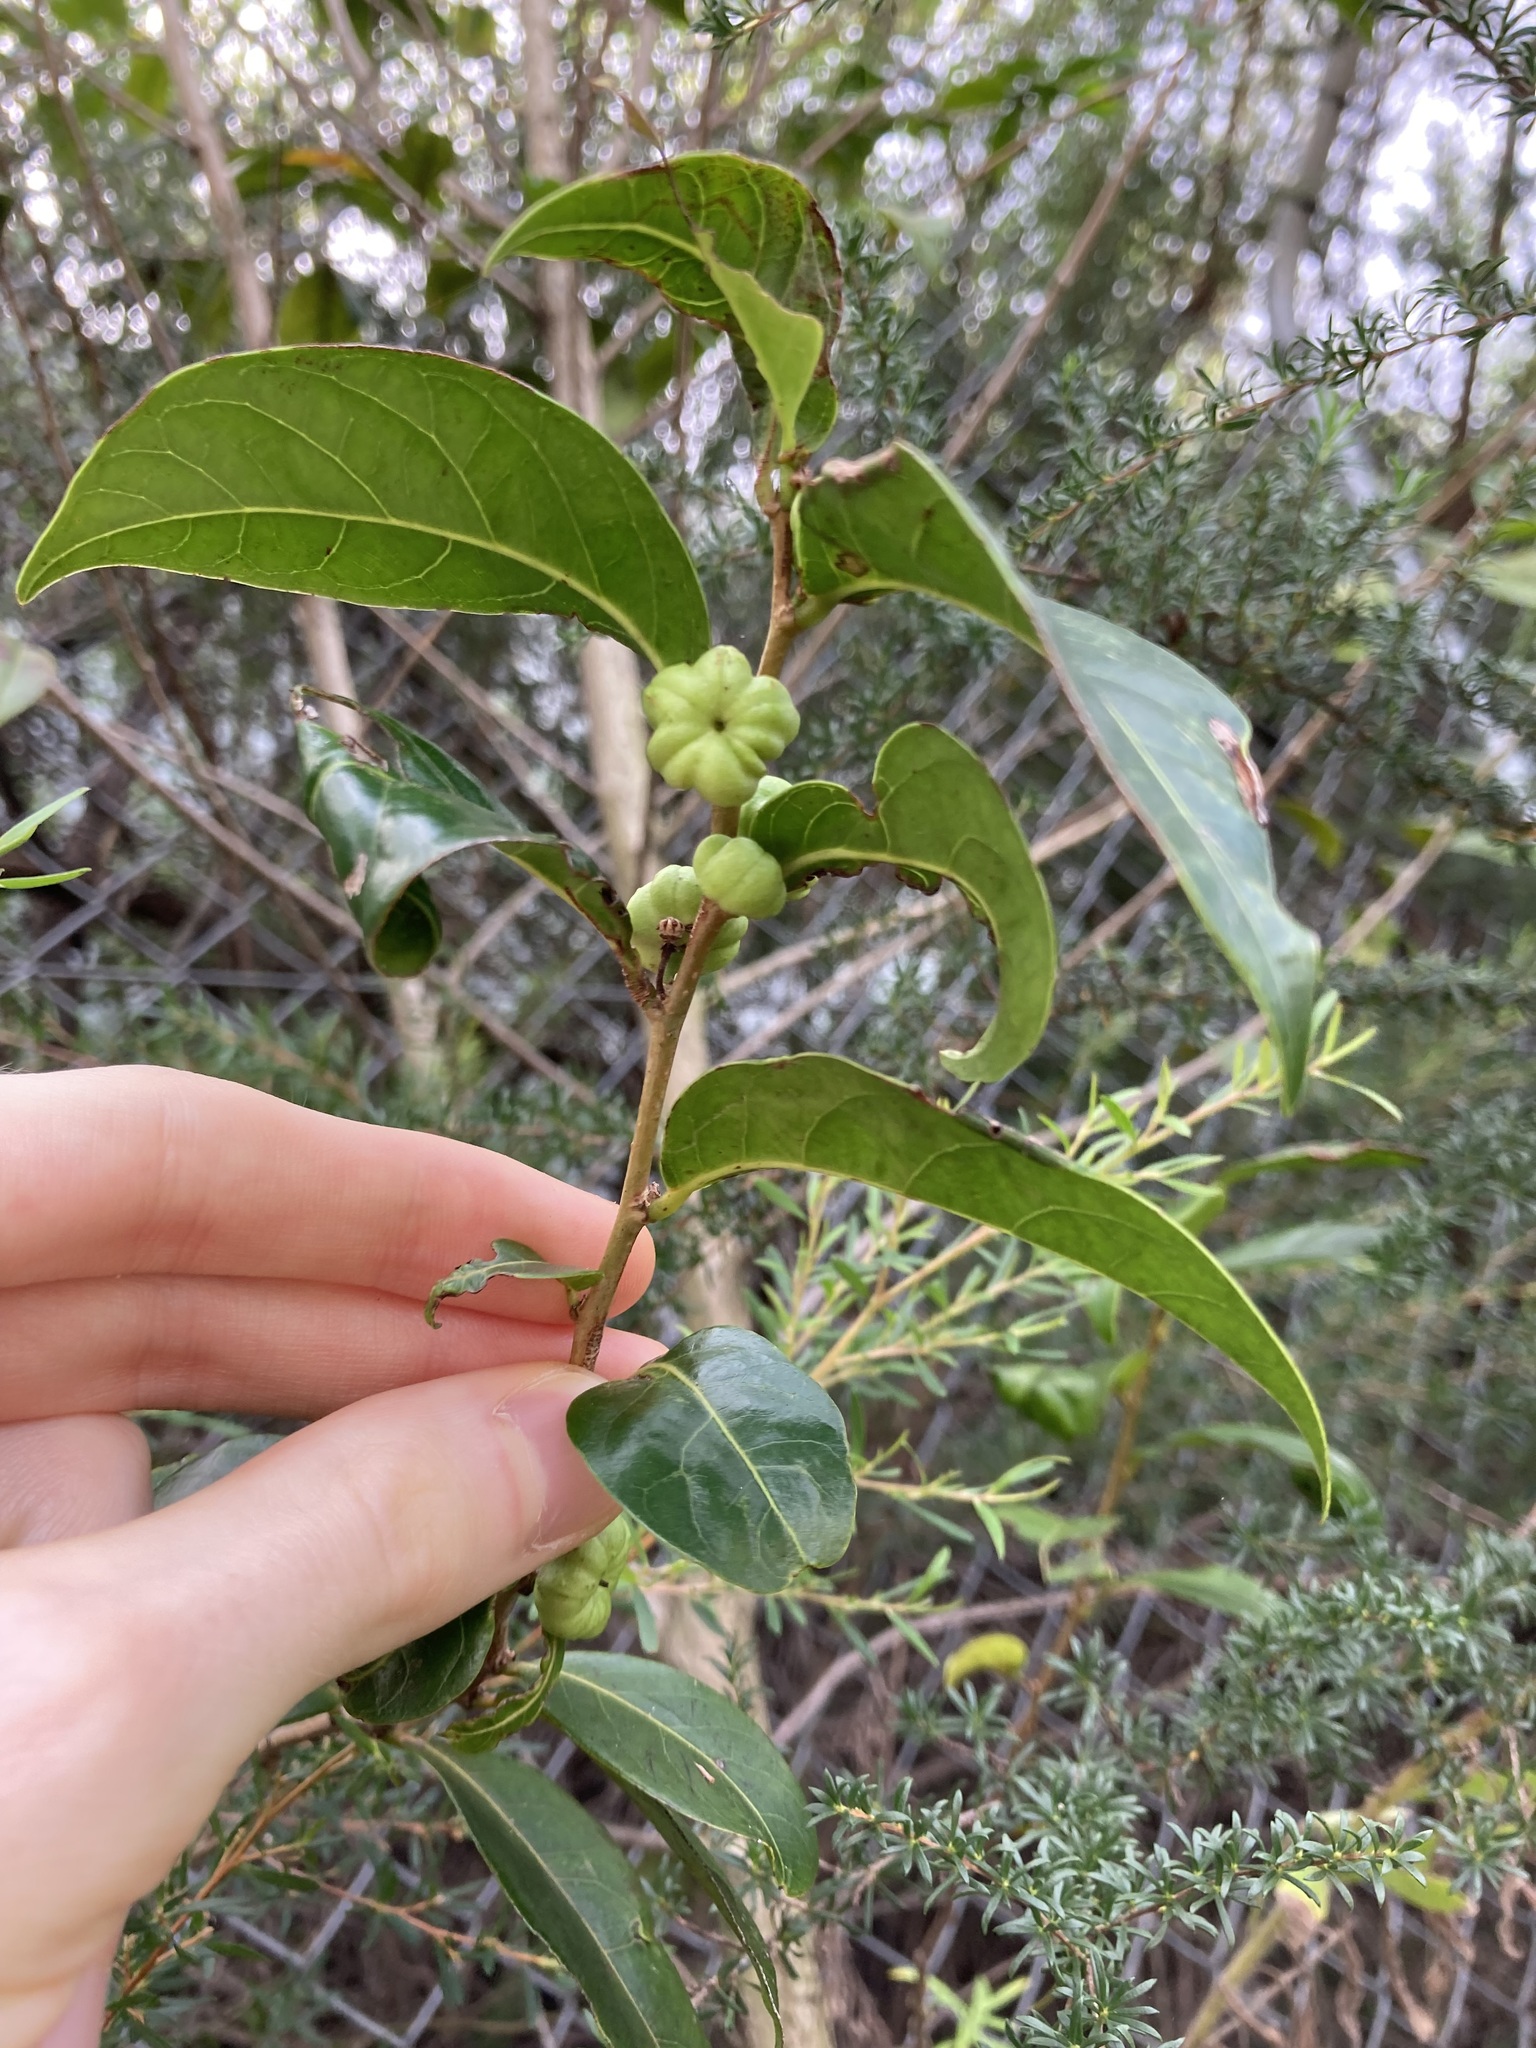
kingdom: Plantae
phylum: Tracheophyta
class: Magnoliopsida
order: Malpighiales
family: Phyllanthaceae
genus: Glochidion
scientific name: Glochidion ferdinandi
